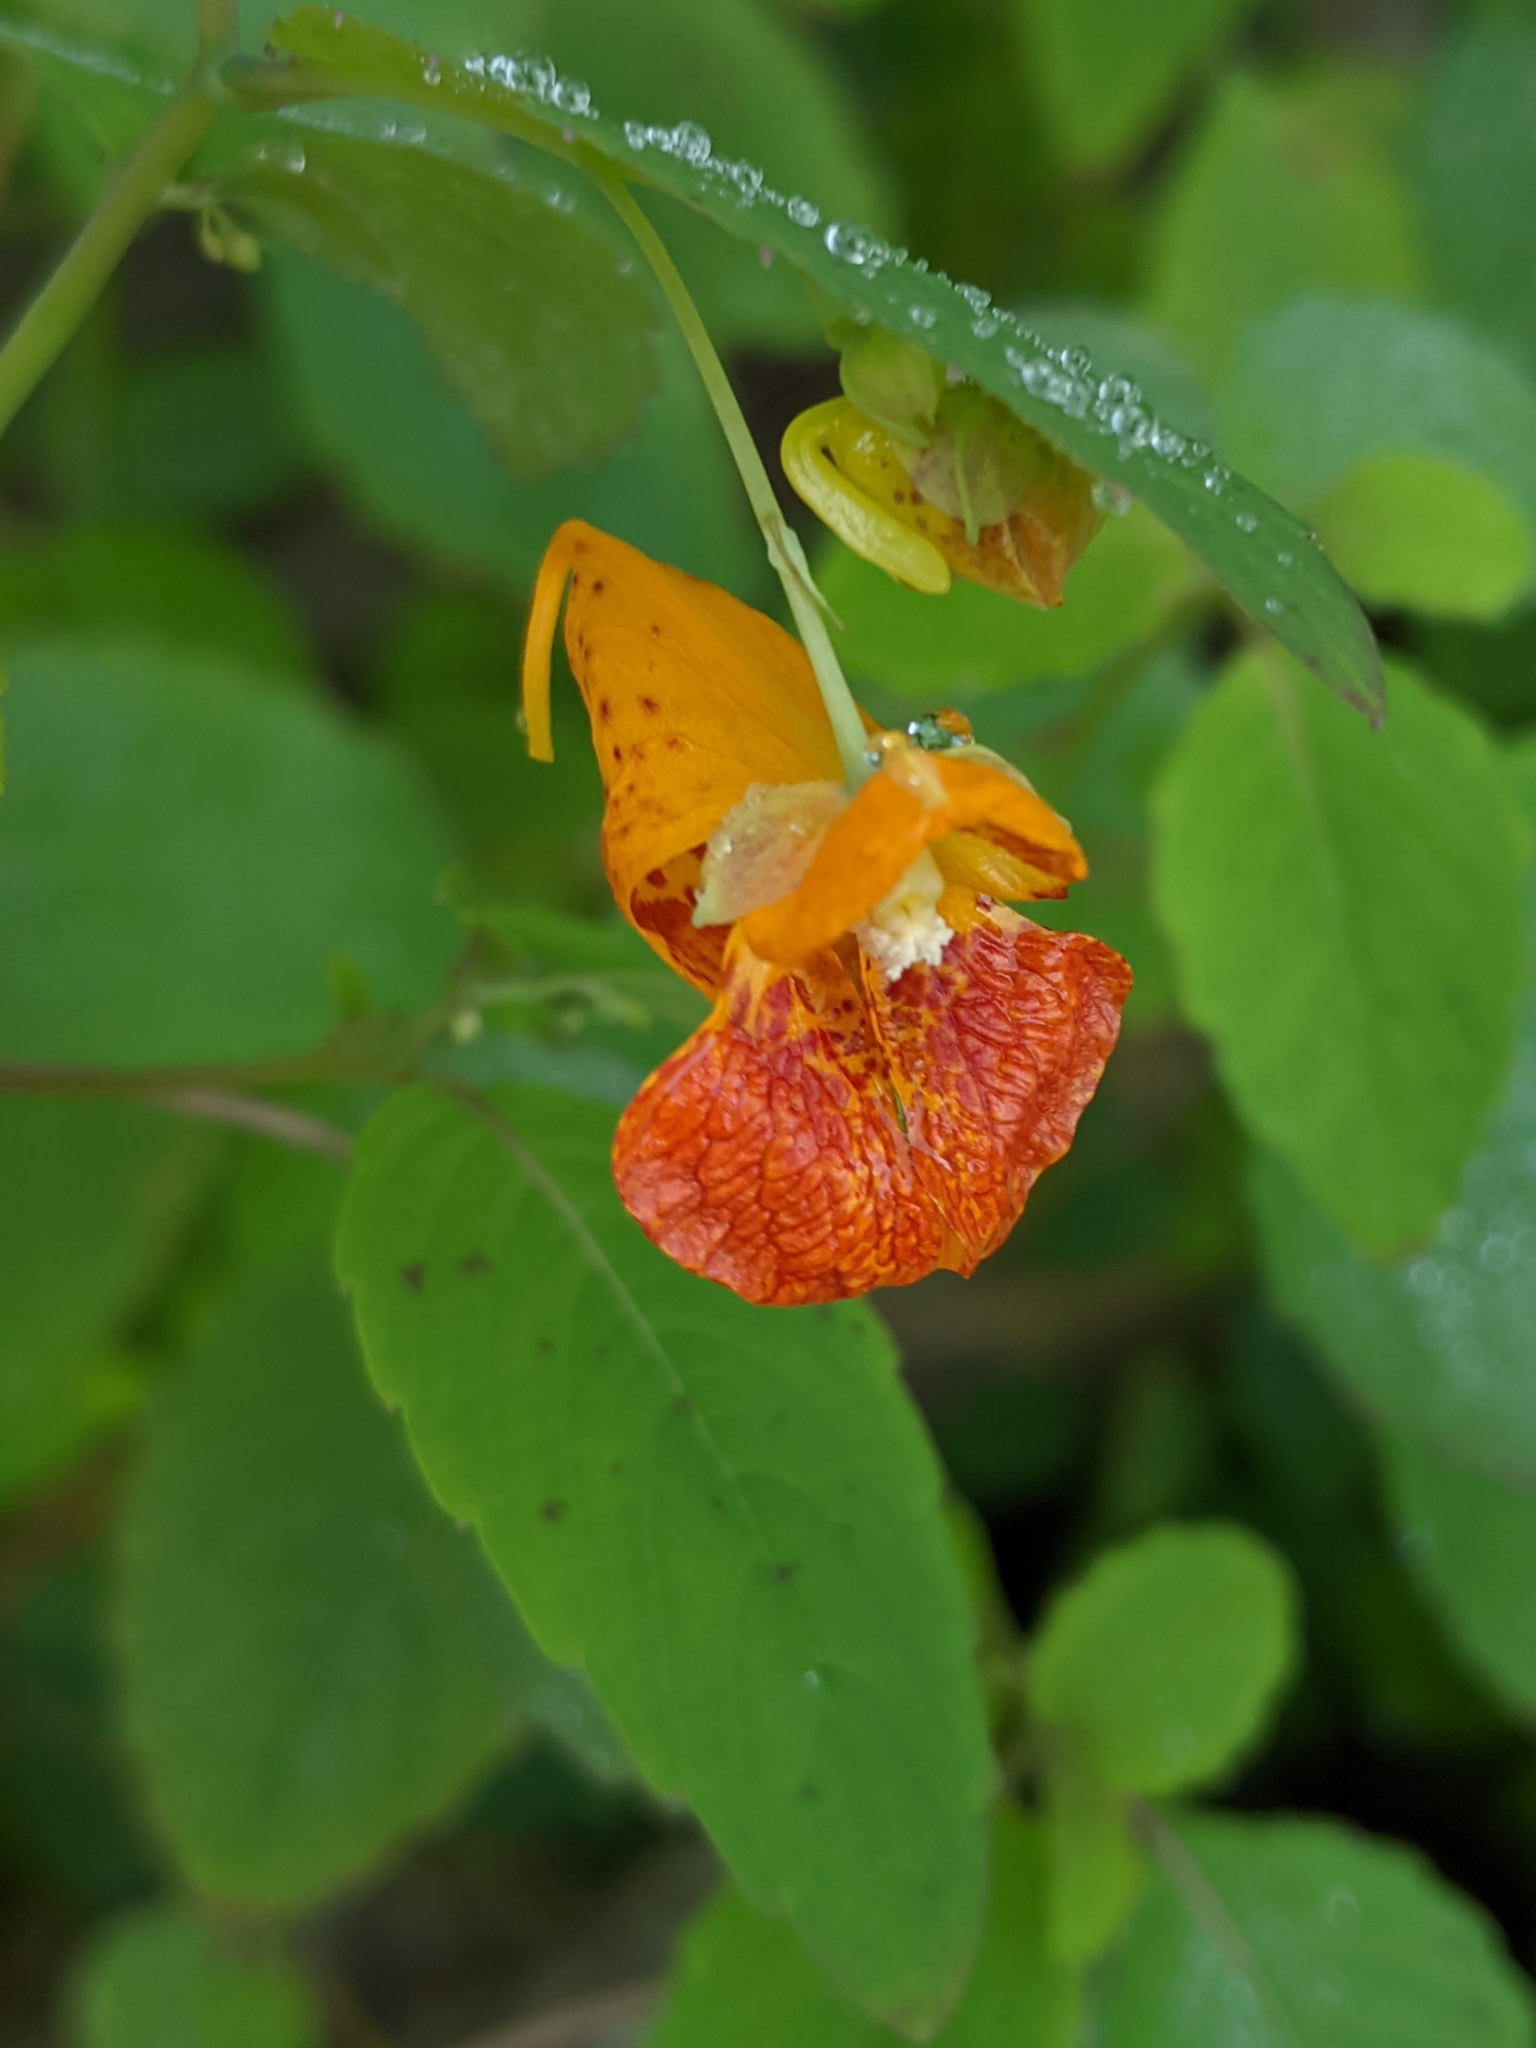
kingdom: Plantae
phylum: Tracheophyta
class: Magnoliopsida
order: Ericales
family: Balsaminaceae
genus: Impatiens
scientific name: Impatiens capensis
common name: Orange balsam
